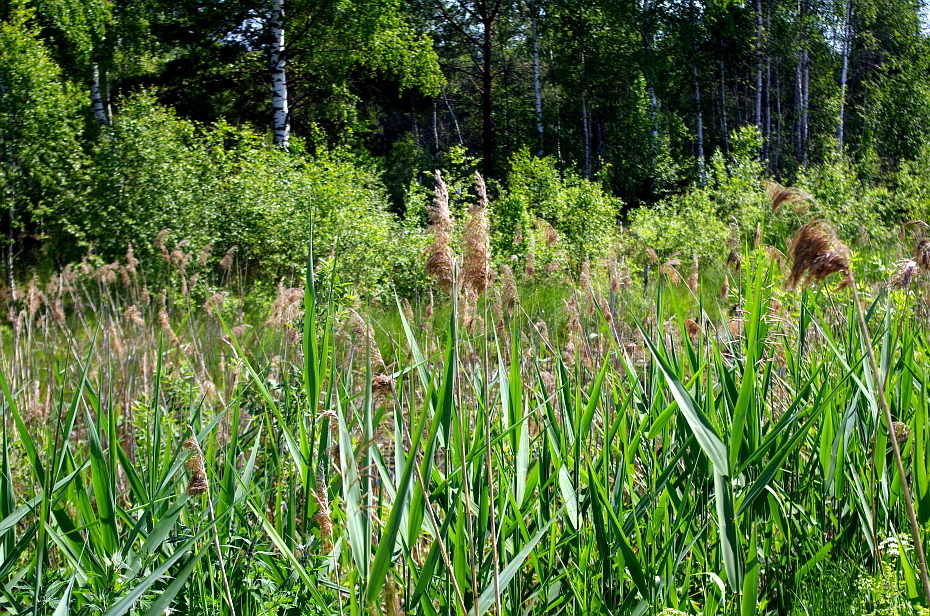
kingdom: Plantae
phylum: Tracheophyta
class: Liliopsida
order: Poales
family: Poaceae
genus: Phragmites
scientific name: Phragmites australis
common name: Common reed
